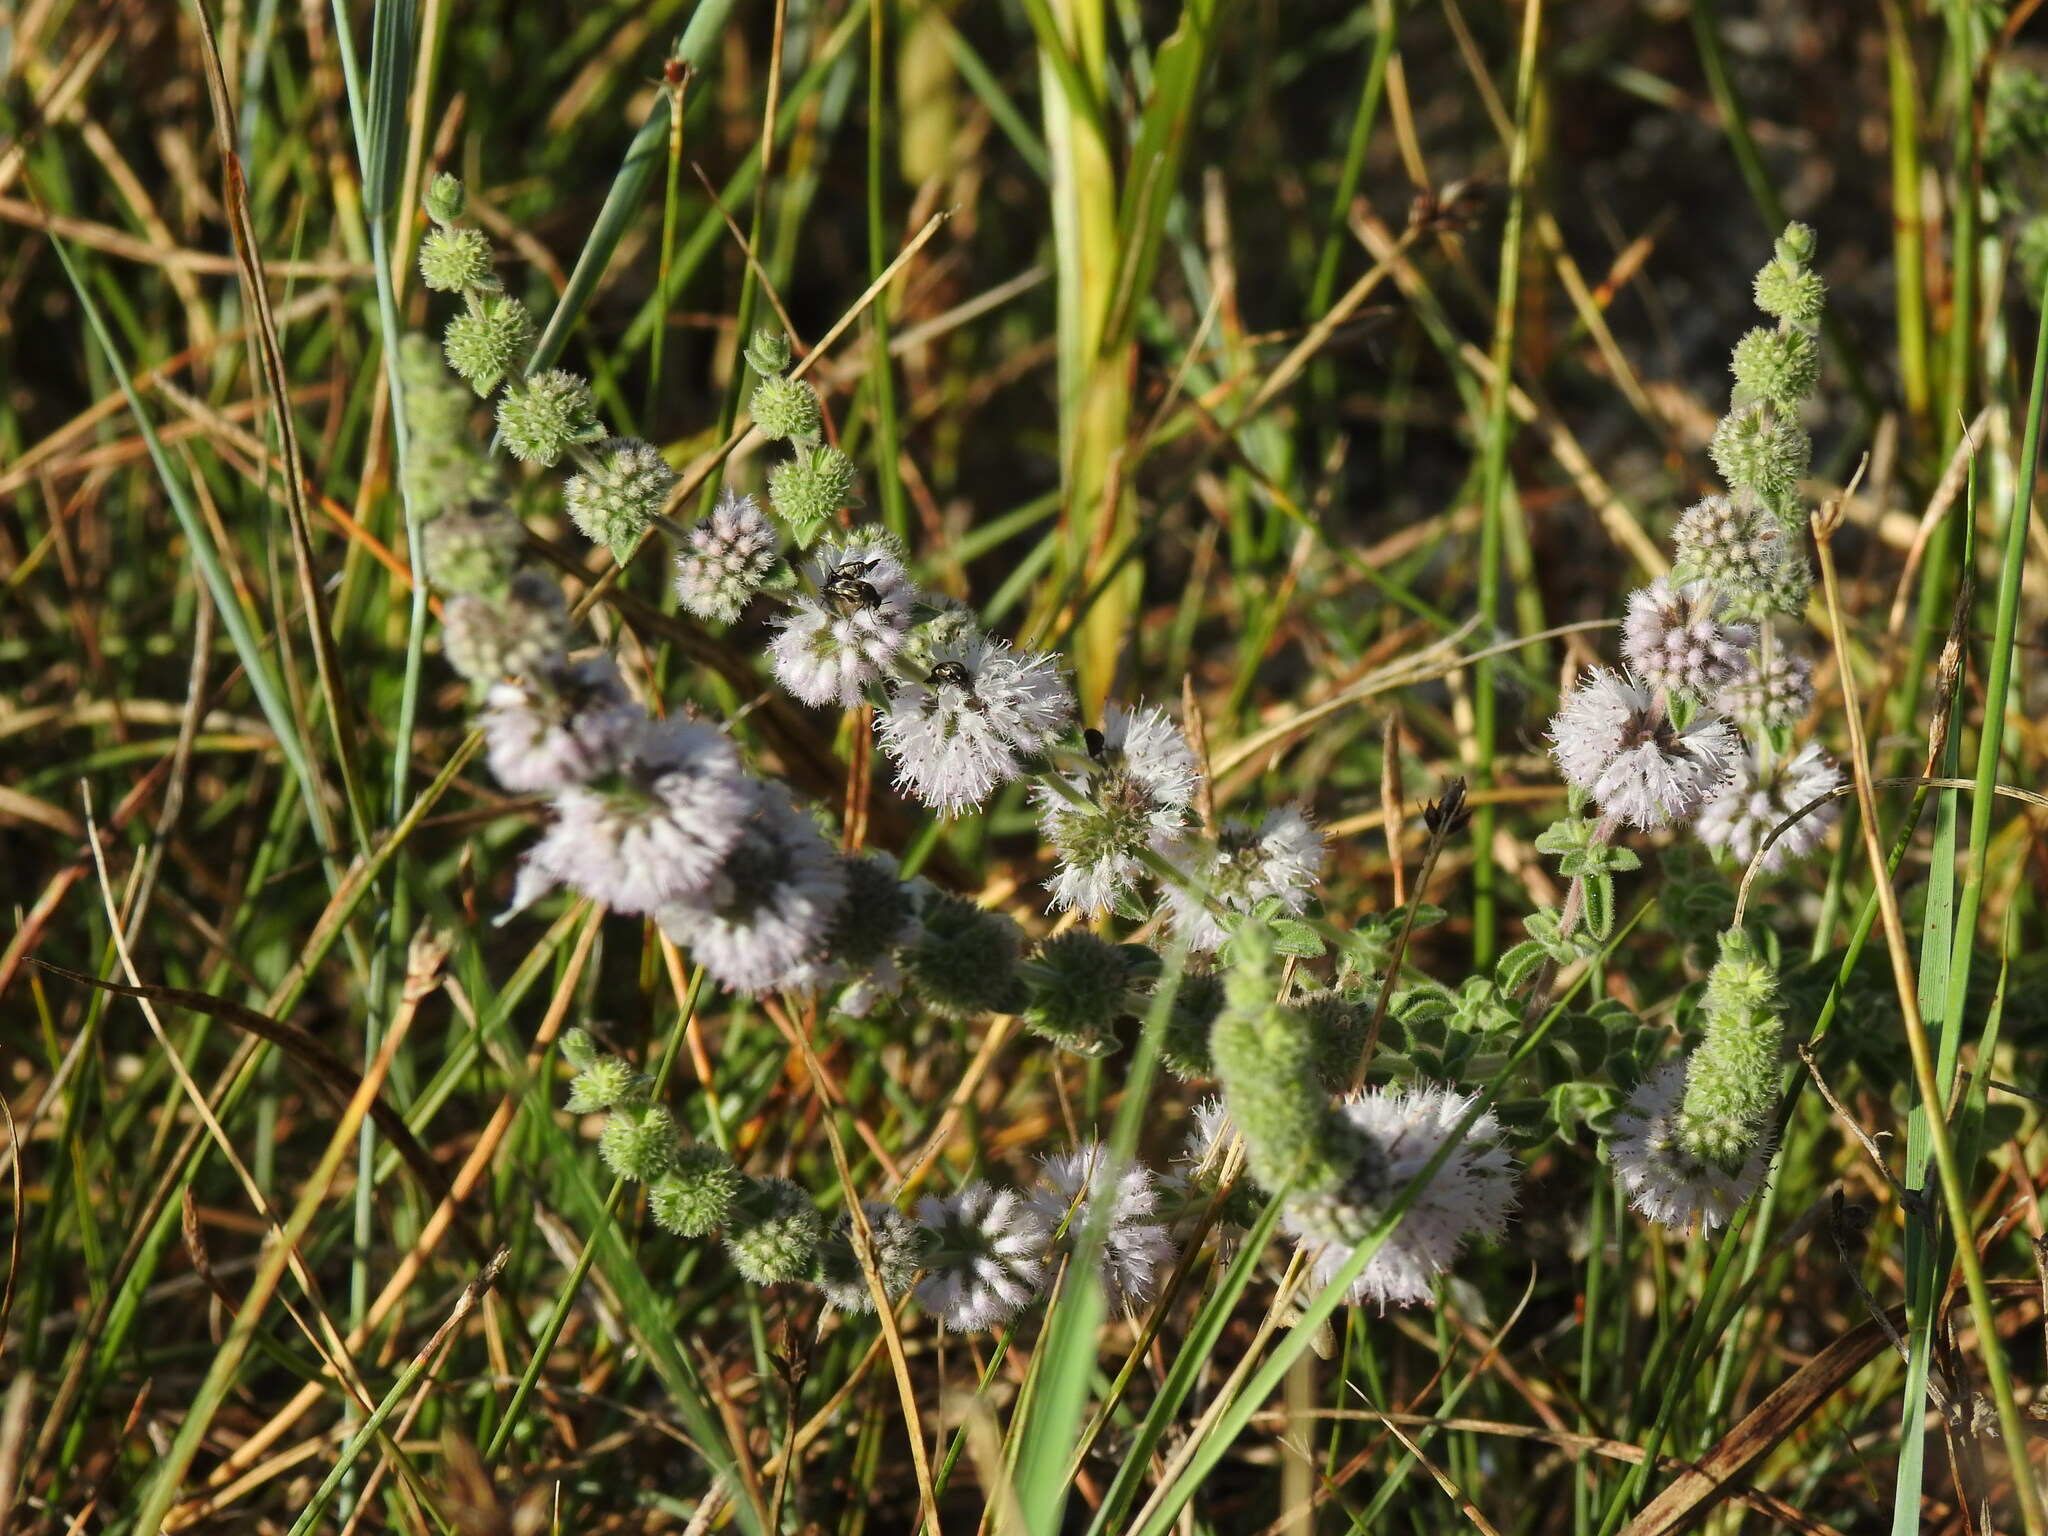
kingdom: Plantae
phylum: Tracheophyta
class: Magnoliopsida
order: Lamiales
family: Lamiaceae
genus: Mentha
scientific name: Mentha pulegium
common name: Pennyroyal
